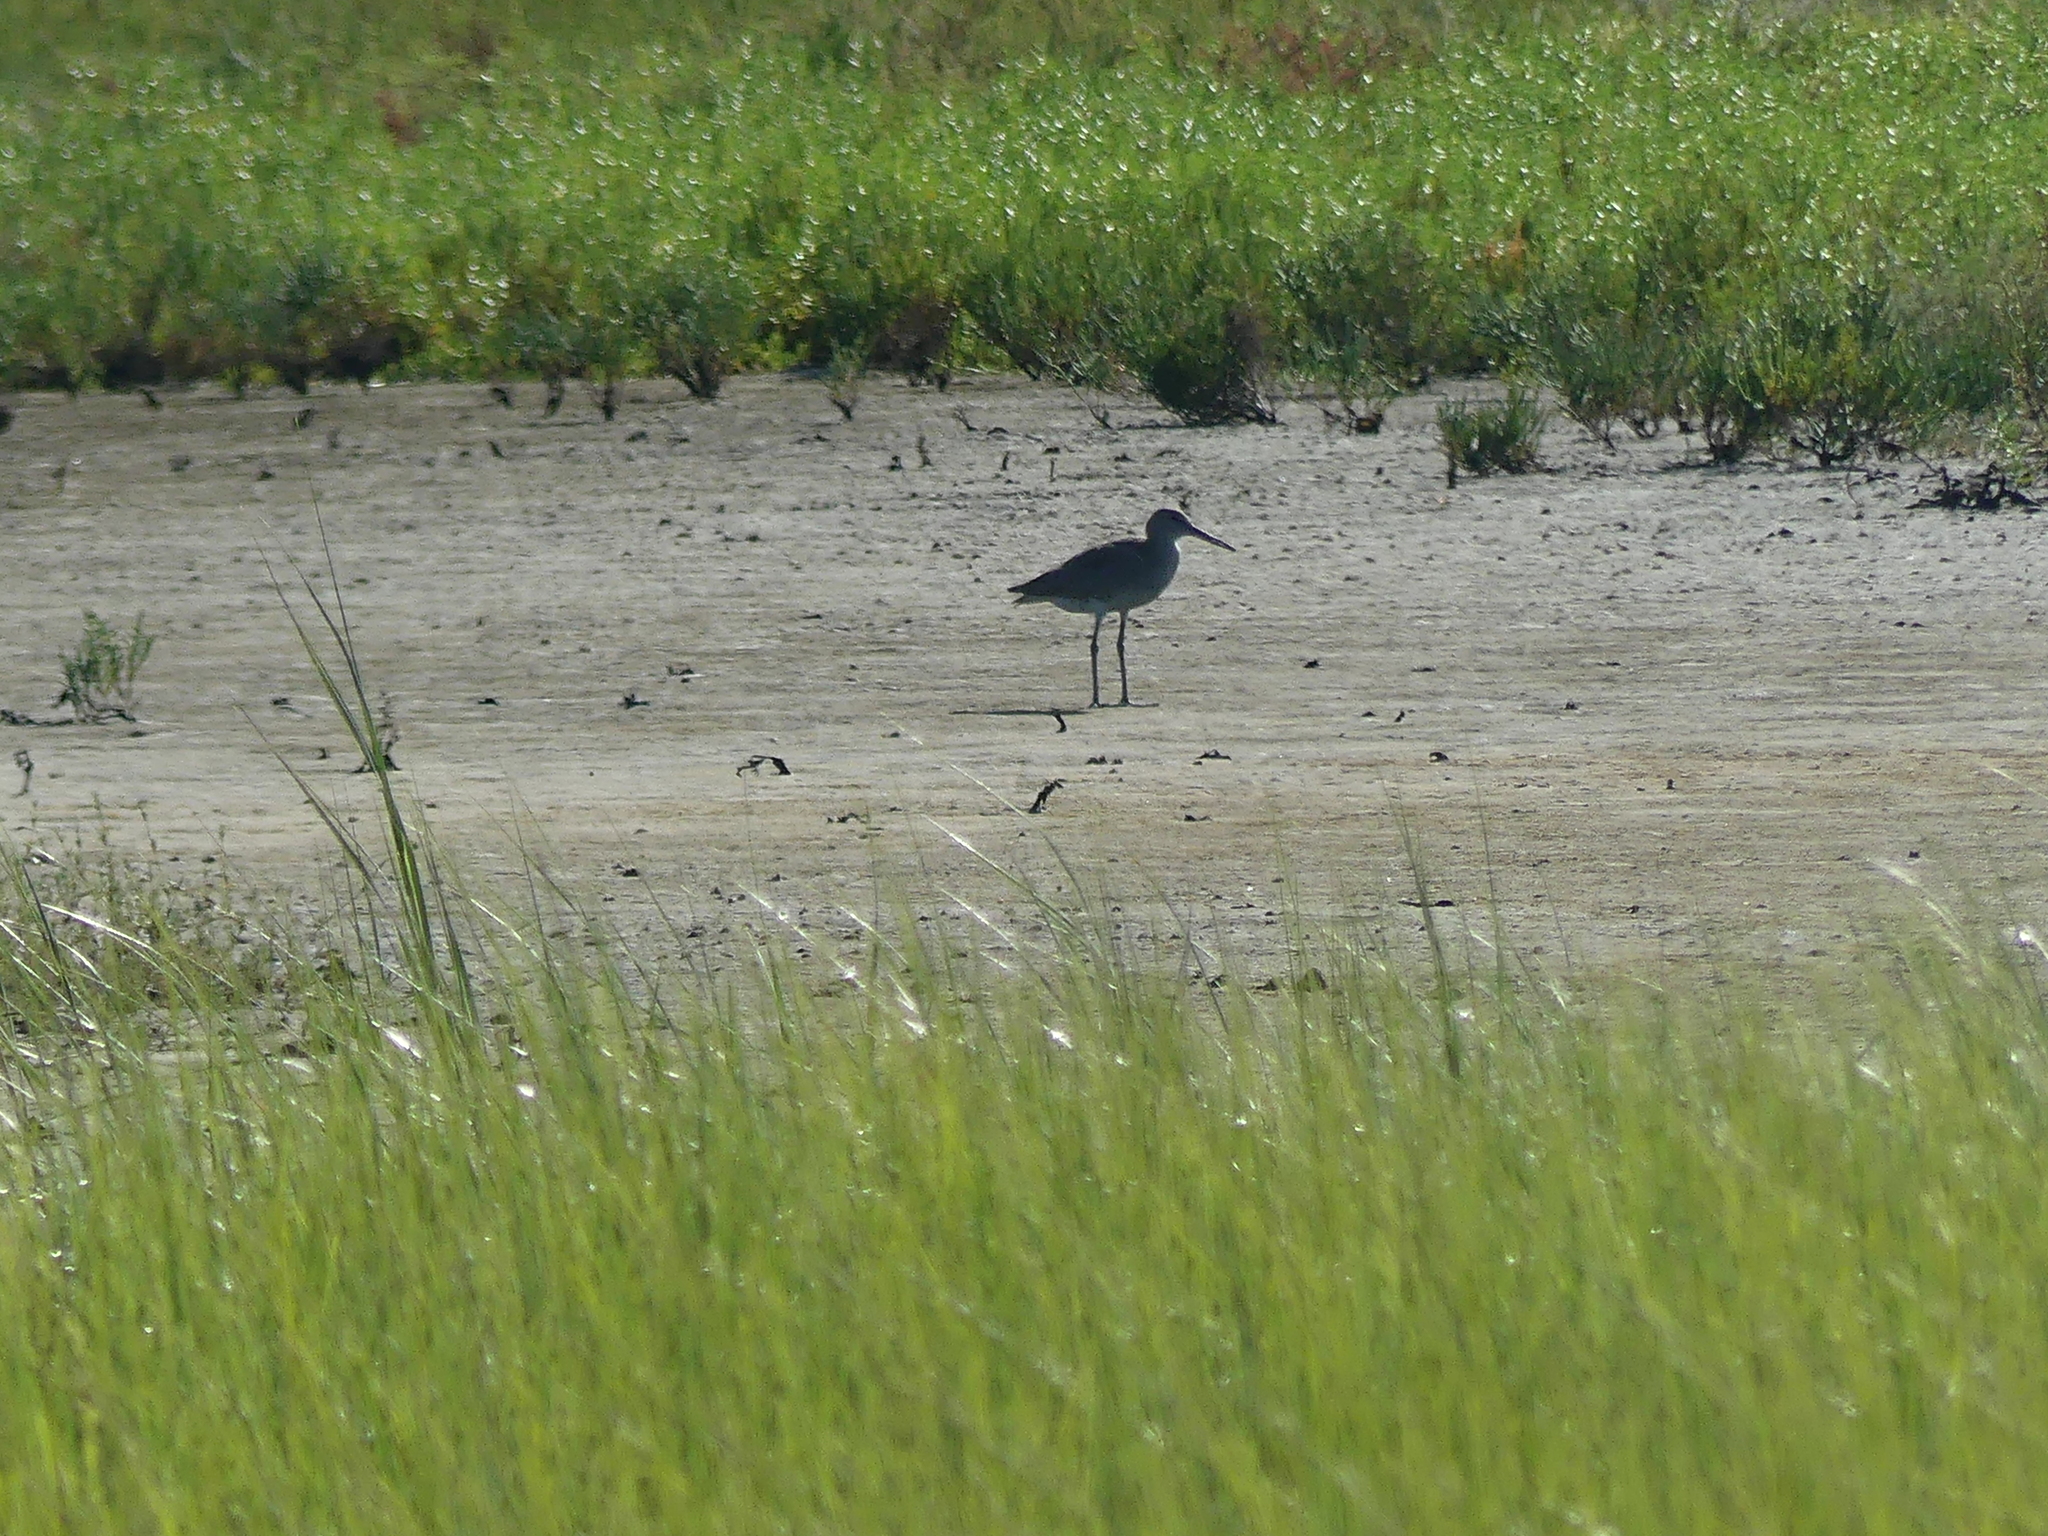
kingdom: Animalia
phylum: Chordata
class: Aves
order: Charadriiformes
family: Scolopacidae
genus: Tringa
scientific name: Tringa semipalmata
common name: Willet
